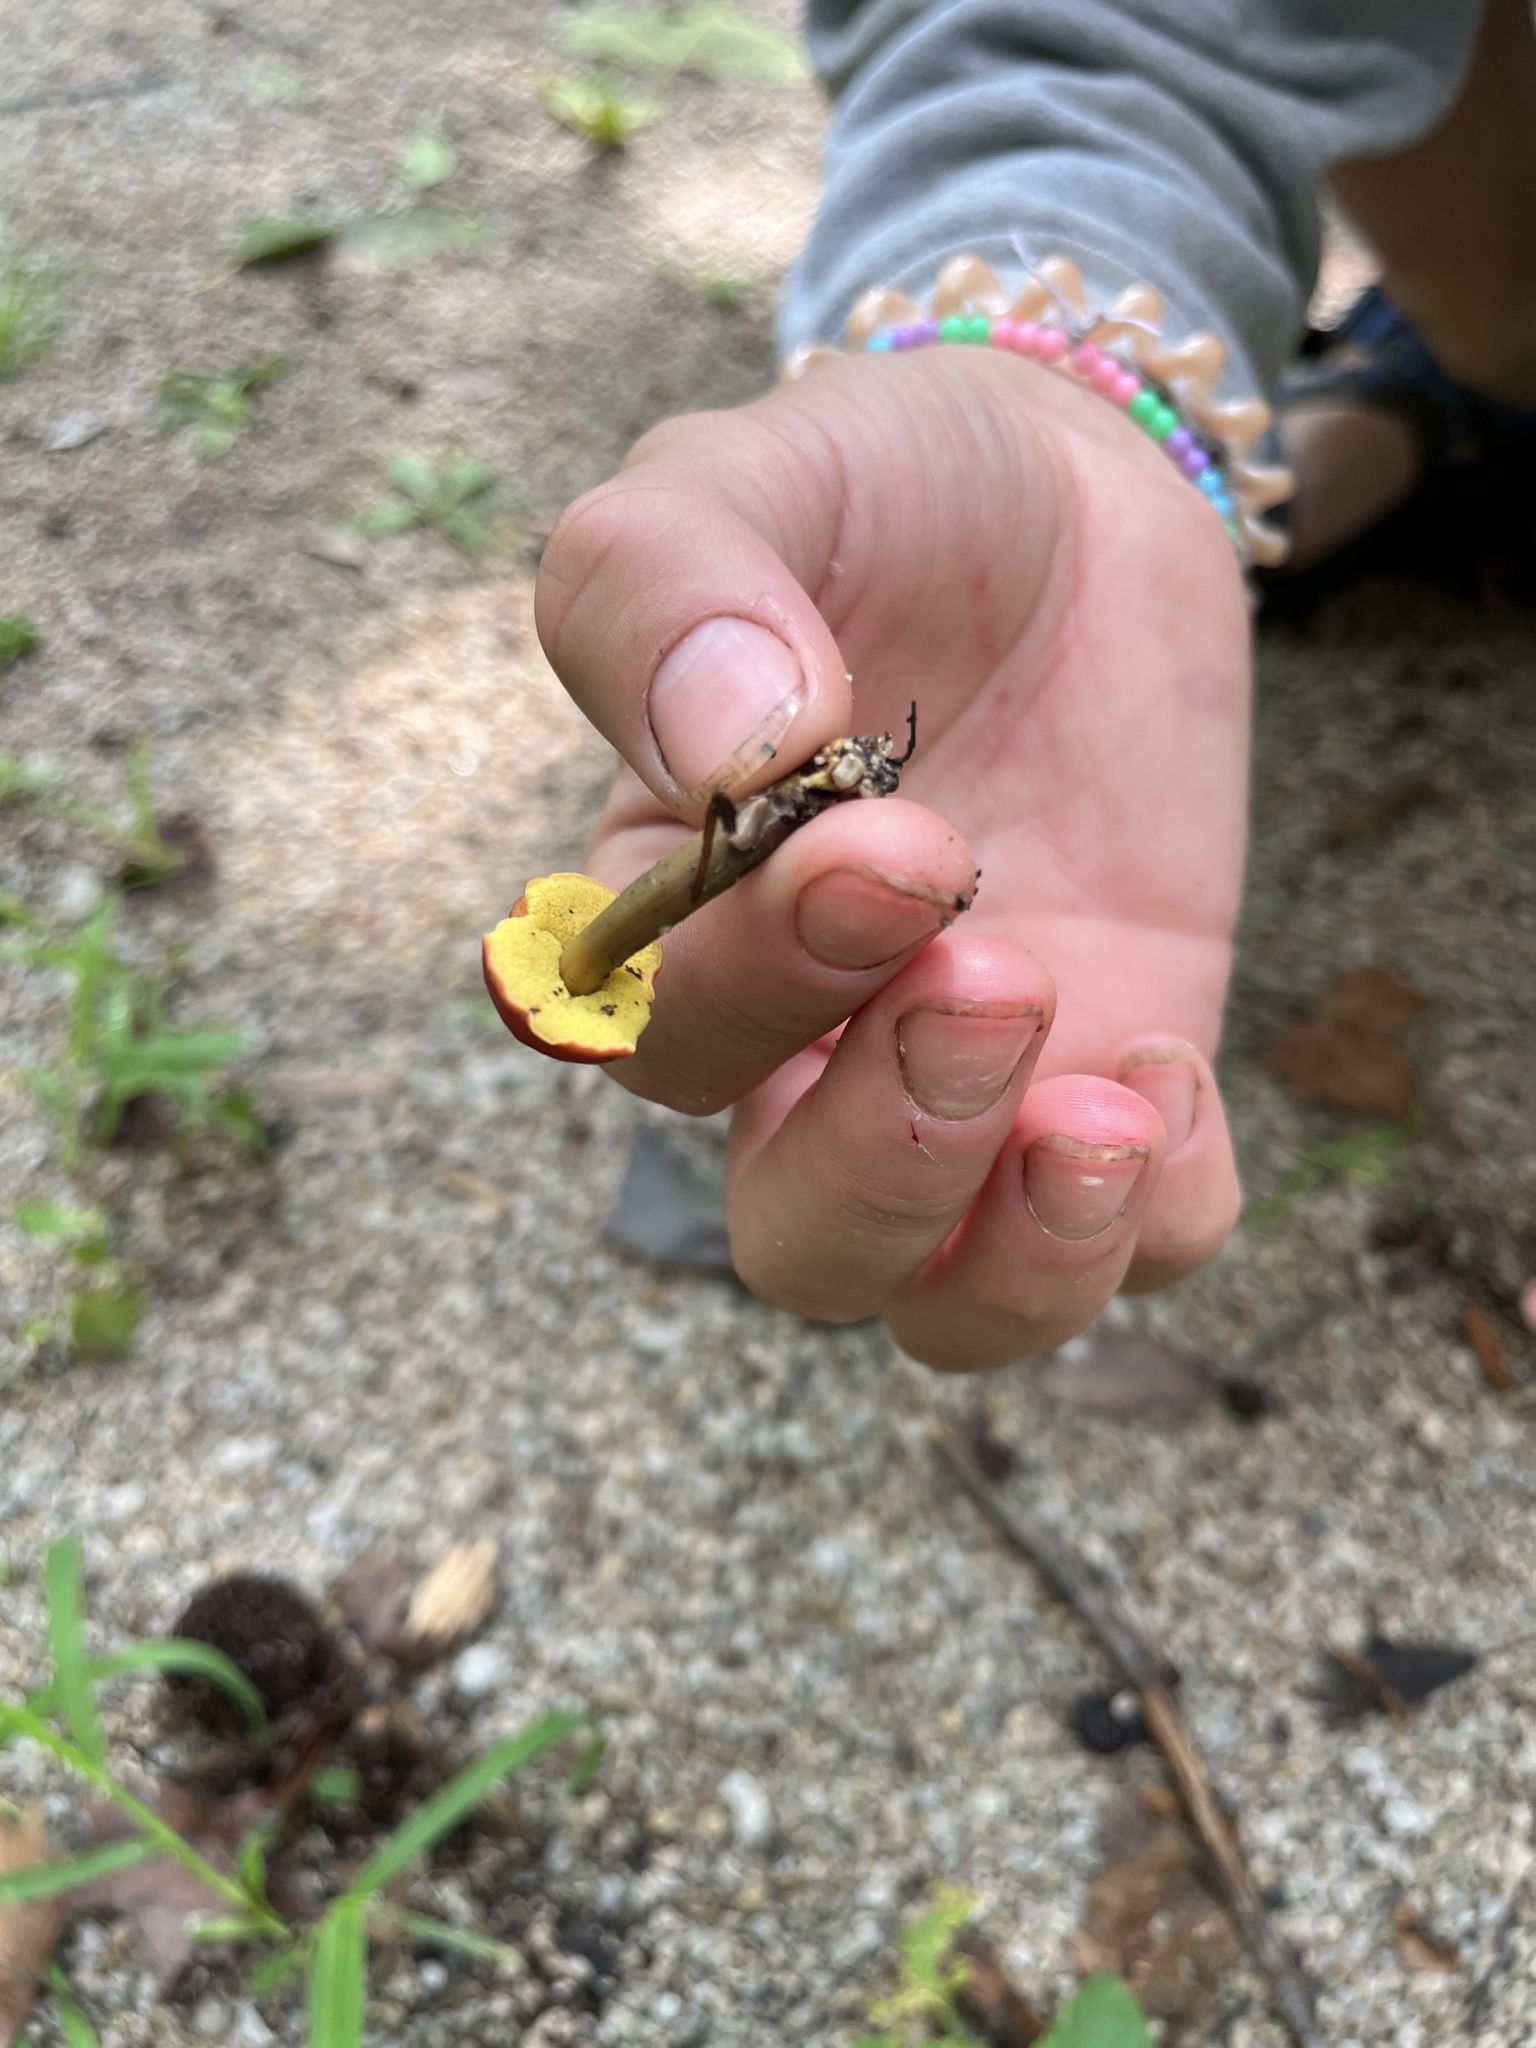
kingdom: Fungi
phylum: Basidiomycota
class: Agaricomycetes
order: Boletales
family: Boletaceae
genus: Hortiboletus
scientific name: Hortiboletus rubellus
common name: Ruby bolete
